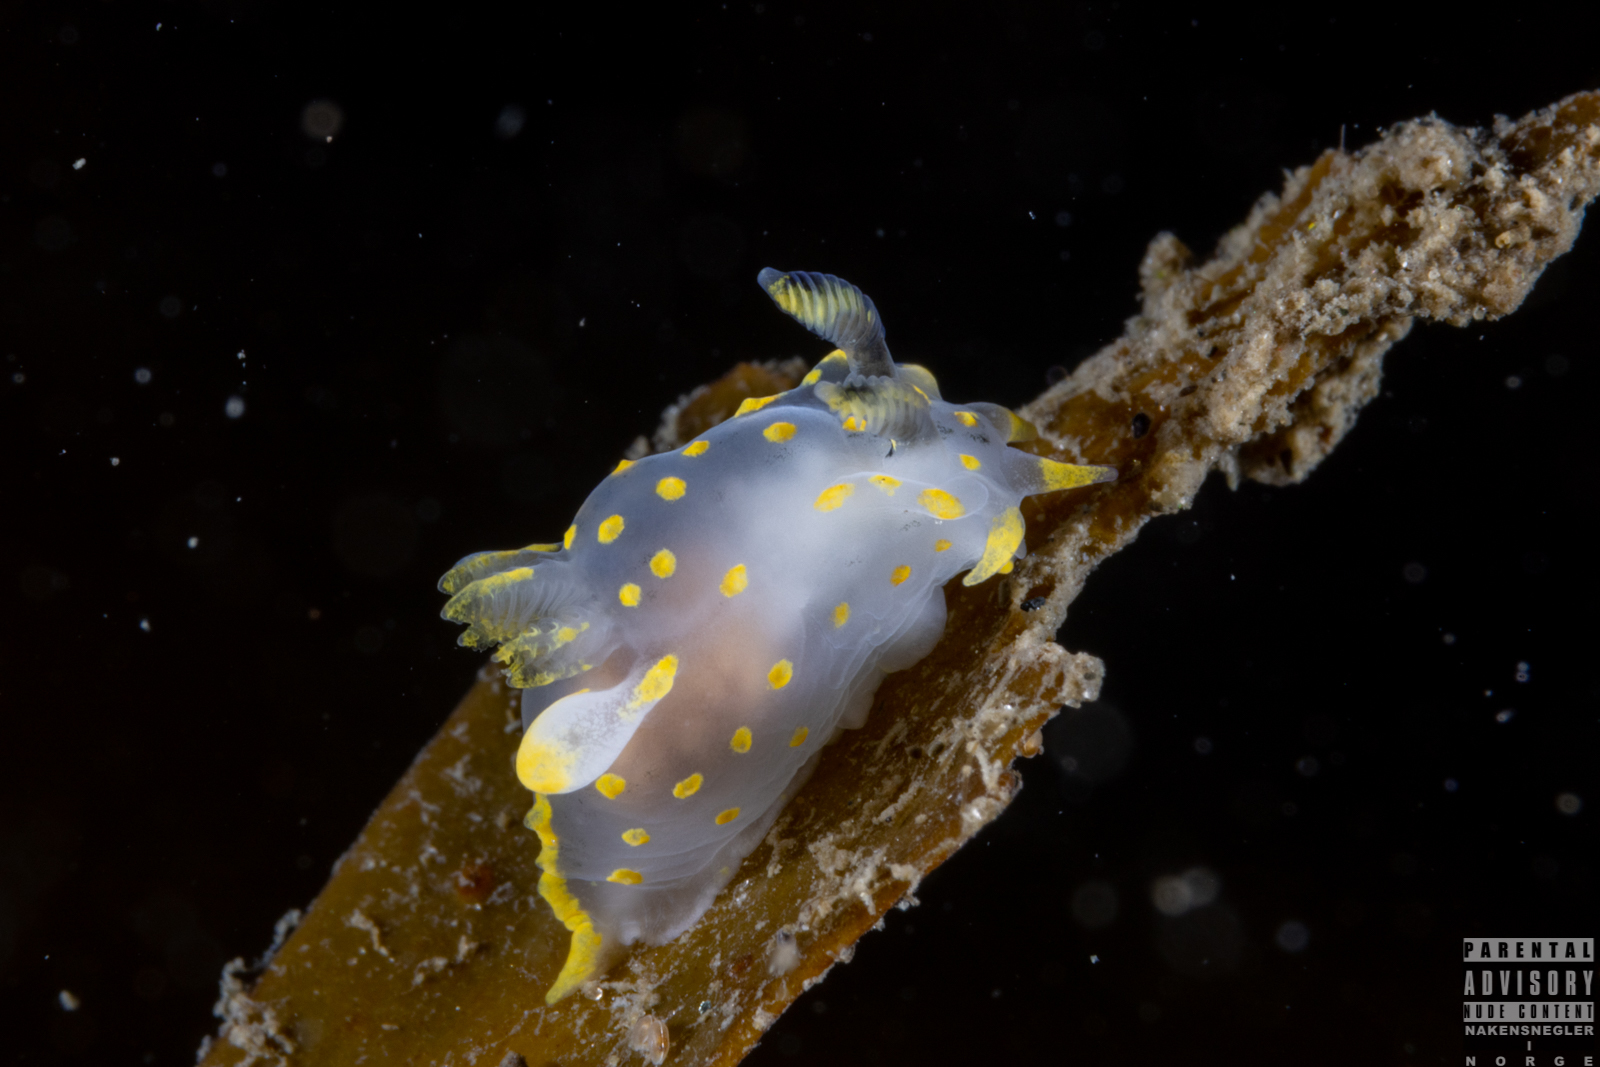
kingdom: Animalia
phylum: Mollusca
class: Gastropoda
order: Nudibranchia
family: Polyceridae
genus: Polycera
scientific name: Polycera quadrilineata
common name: Four-striped polycera
